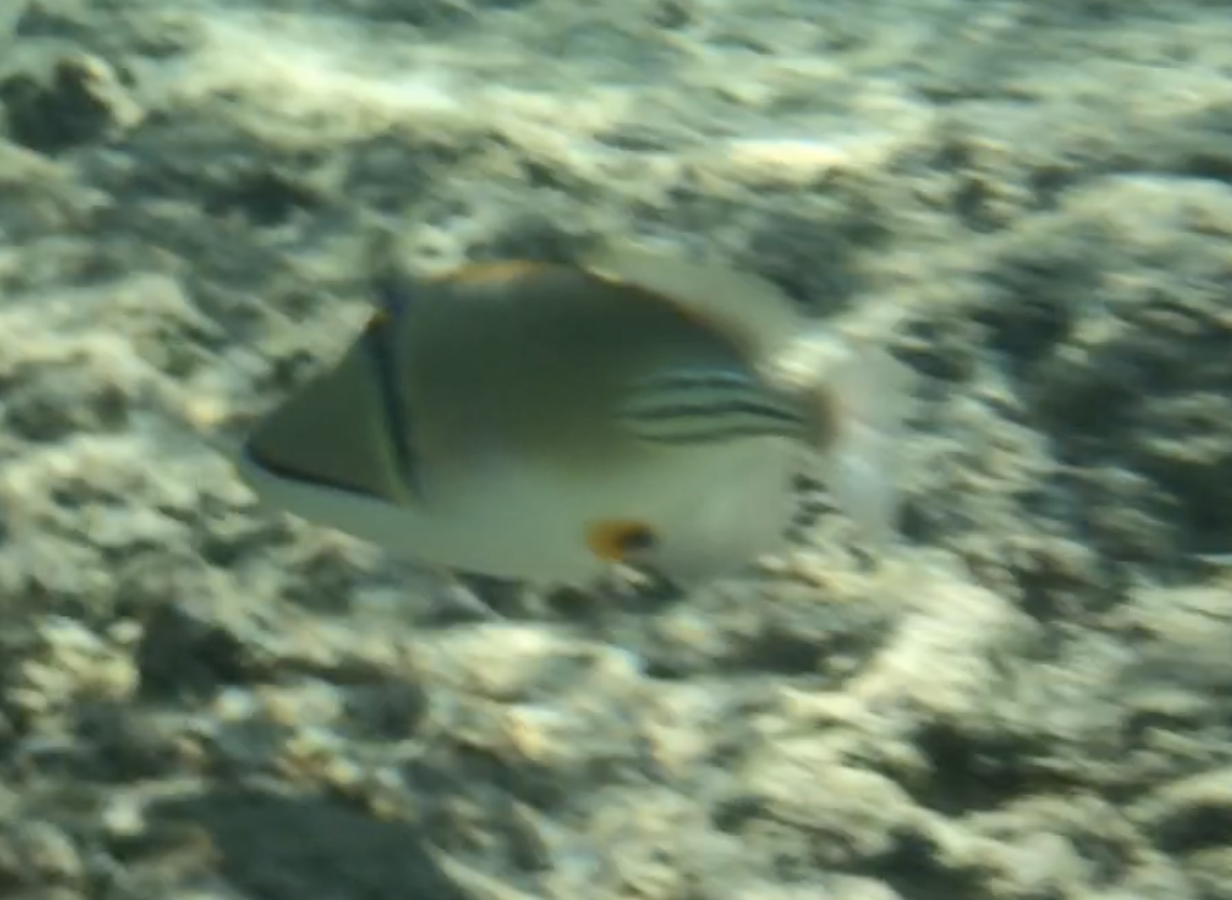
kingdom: Animalia
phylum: Chordata
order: Tetraodontiformes
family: Balistidae
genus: Rhinecanthus
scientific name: Rhinecanthus assasi
